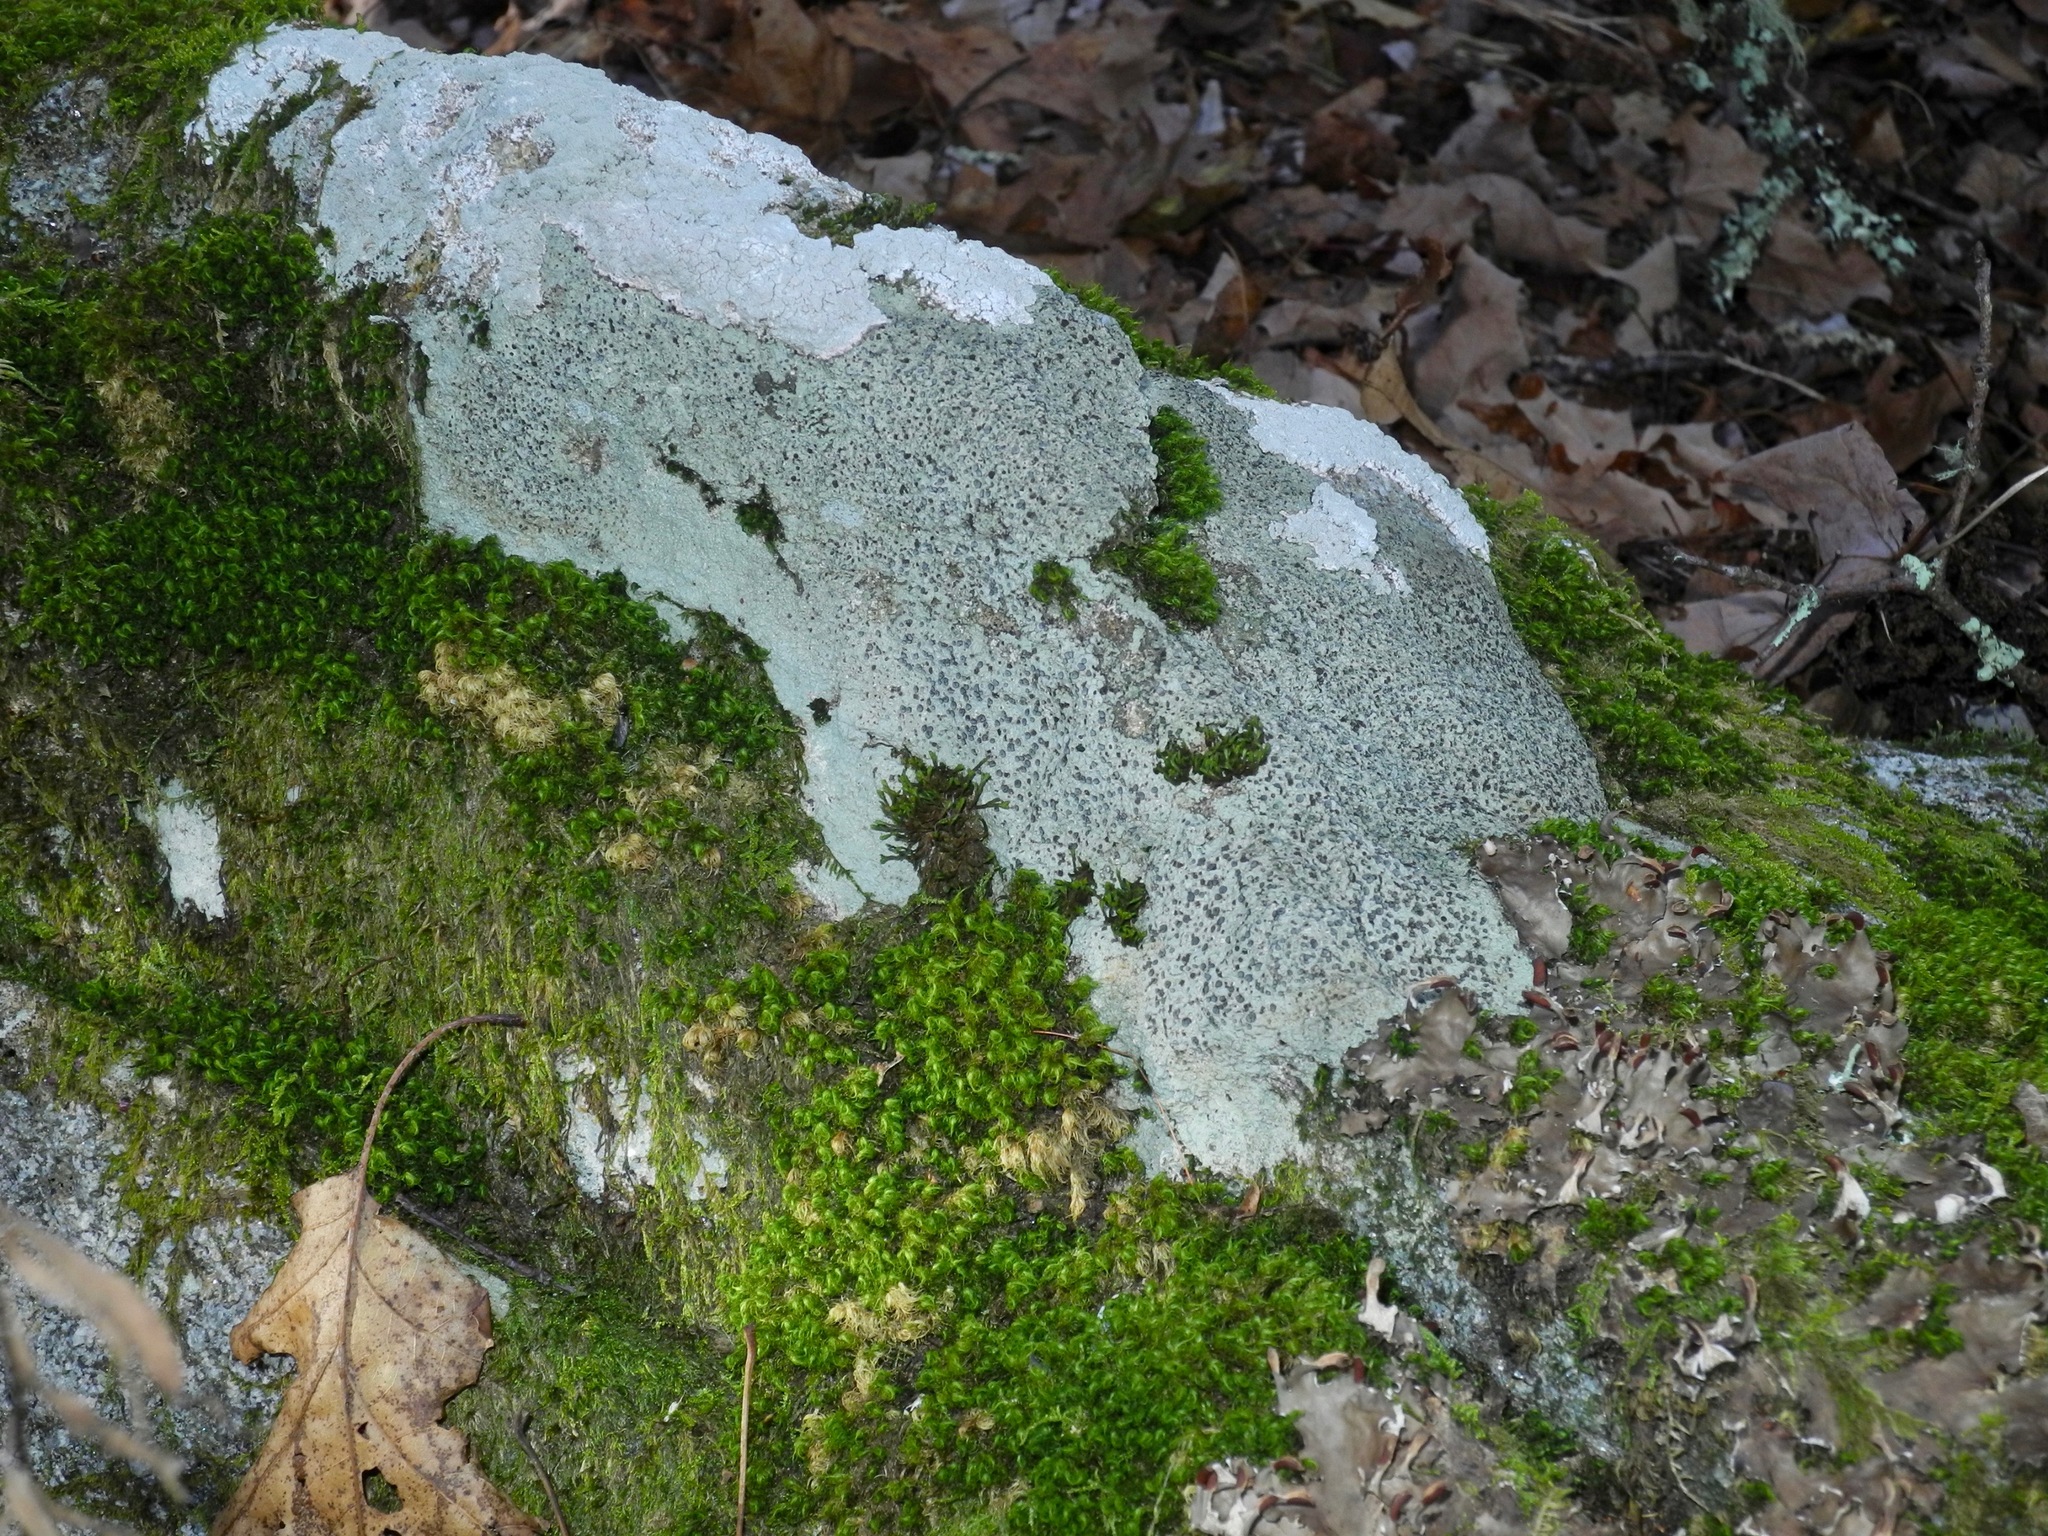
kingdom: Fungi
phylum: Ascomycota
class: Lecanoromycetes
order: Lecideales
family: Lecideaceae
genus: Porpidia
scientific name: Porpidia albocaerulescens
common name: Smokey-eyed boulder lichen
